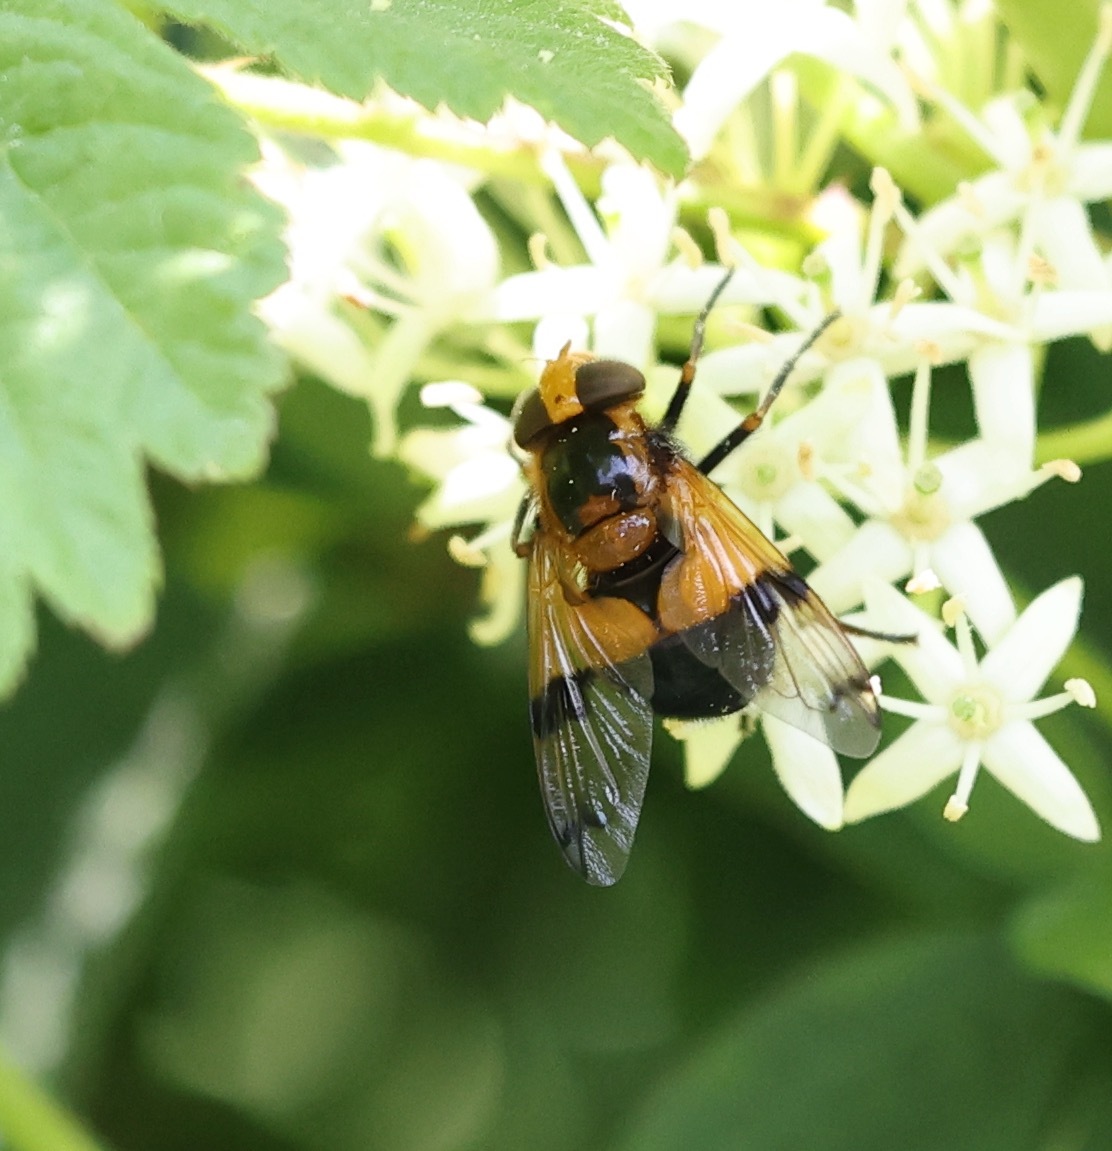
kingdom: Animalia
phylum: Arthropoda
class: Insecta
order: Diptera
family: Syrphidae
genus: Volucella
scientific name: Volucella inflata
